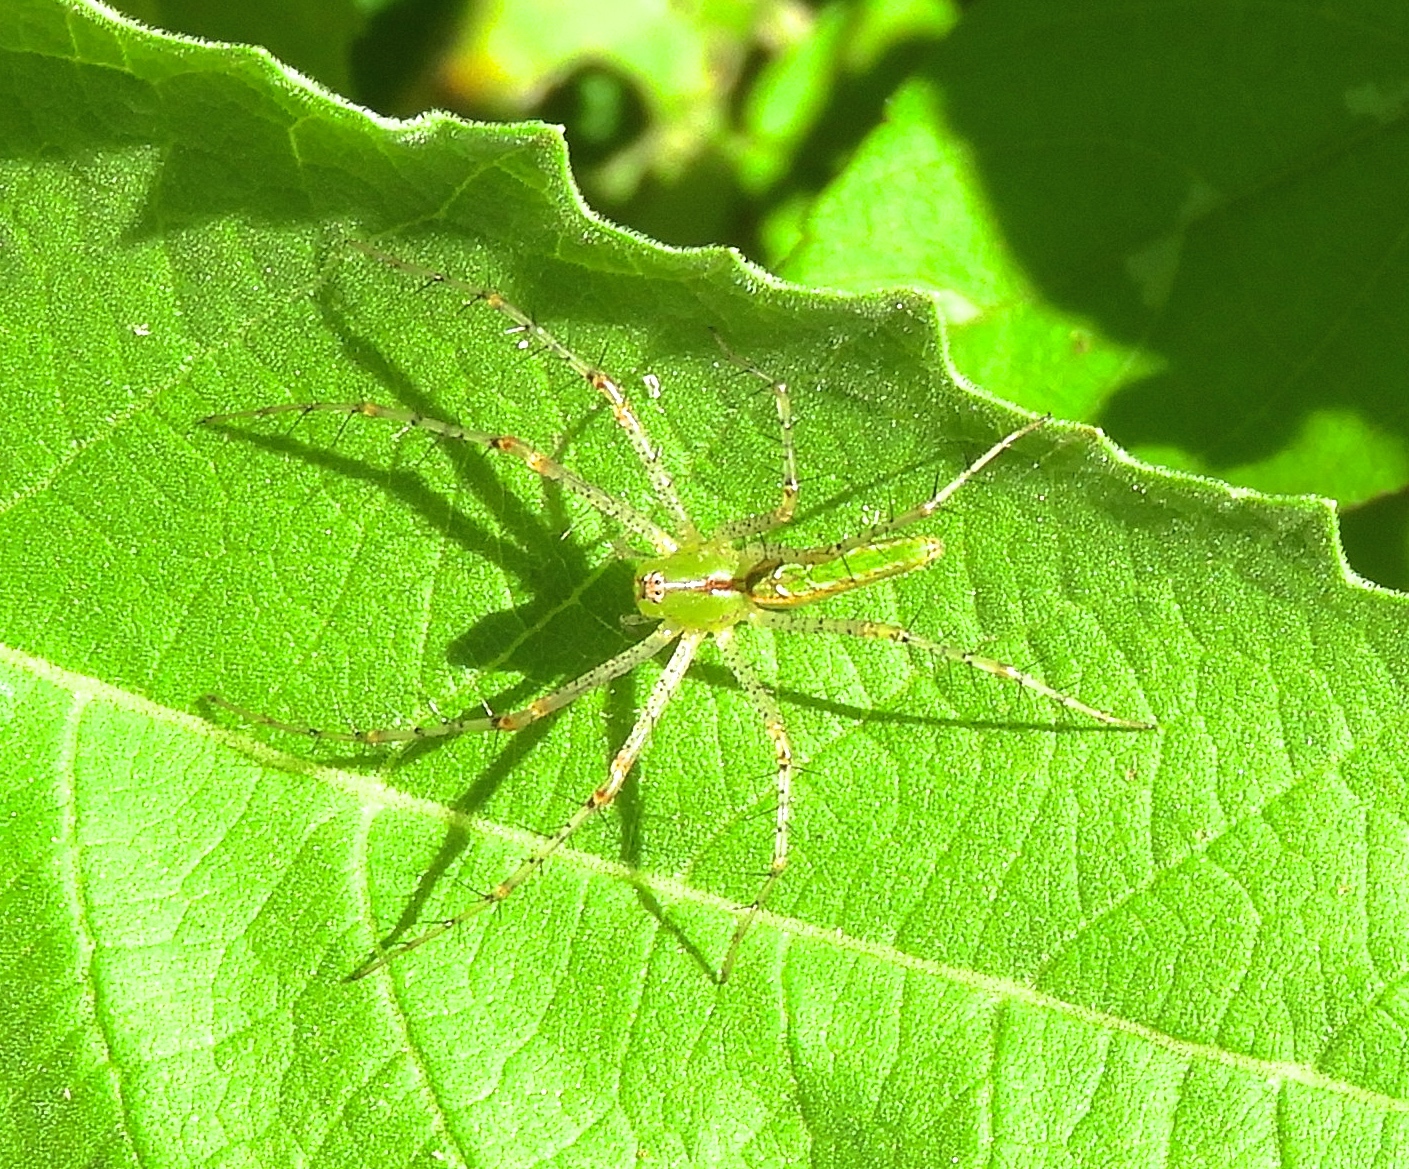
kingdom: Animalia
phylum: Arthropoda
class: Arachnida
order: Araneae
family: Oxyopidae
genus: Peucetia
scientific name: Peucetia
